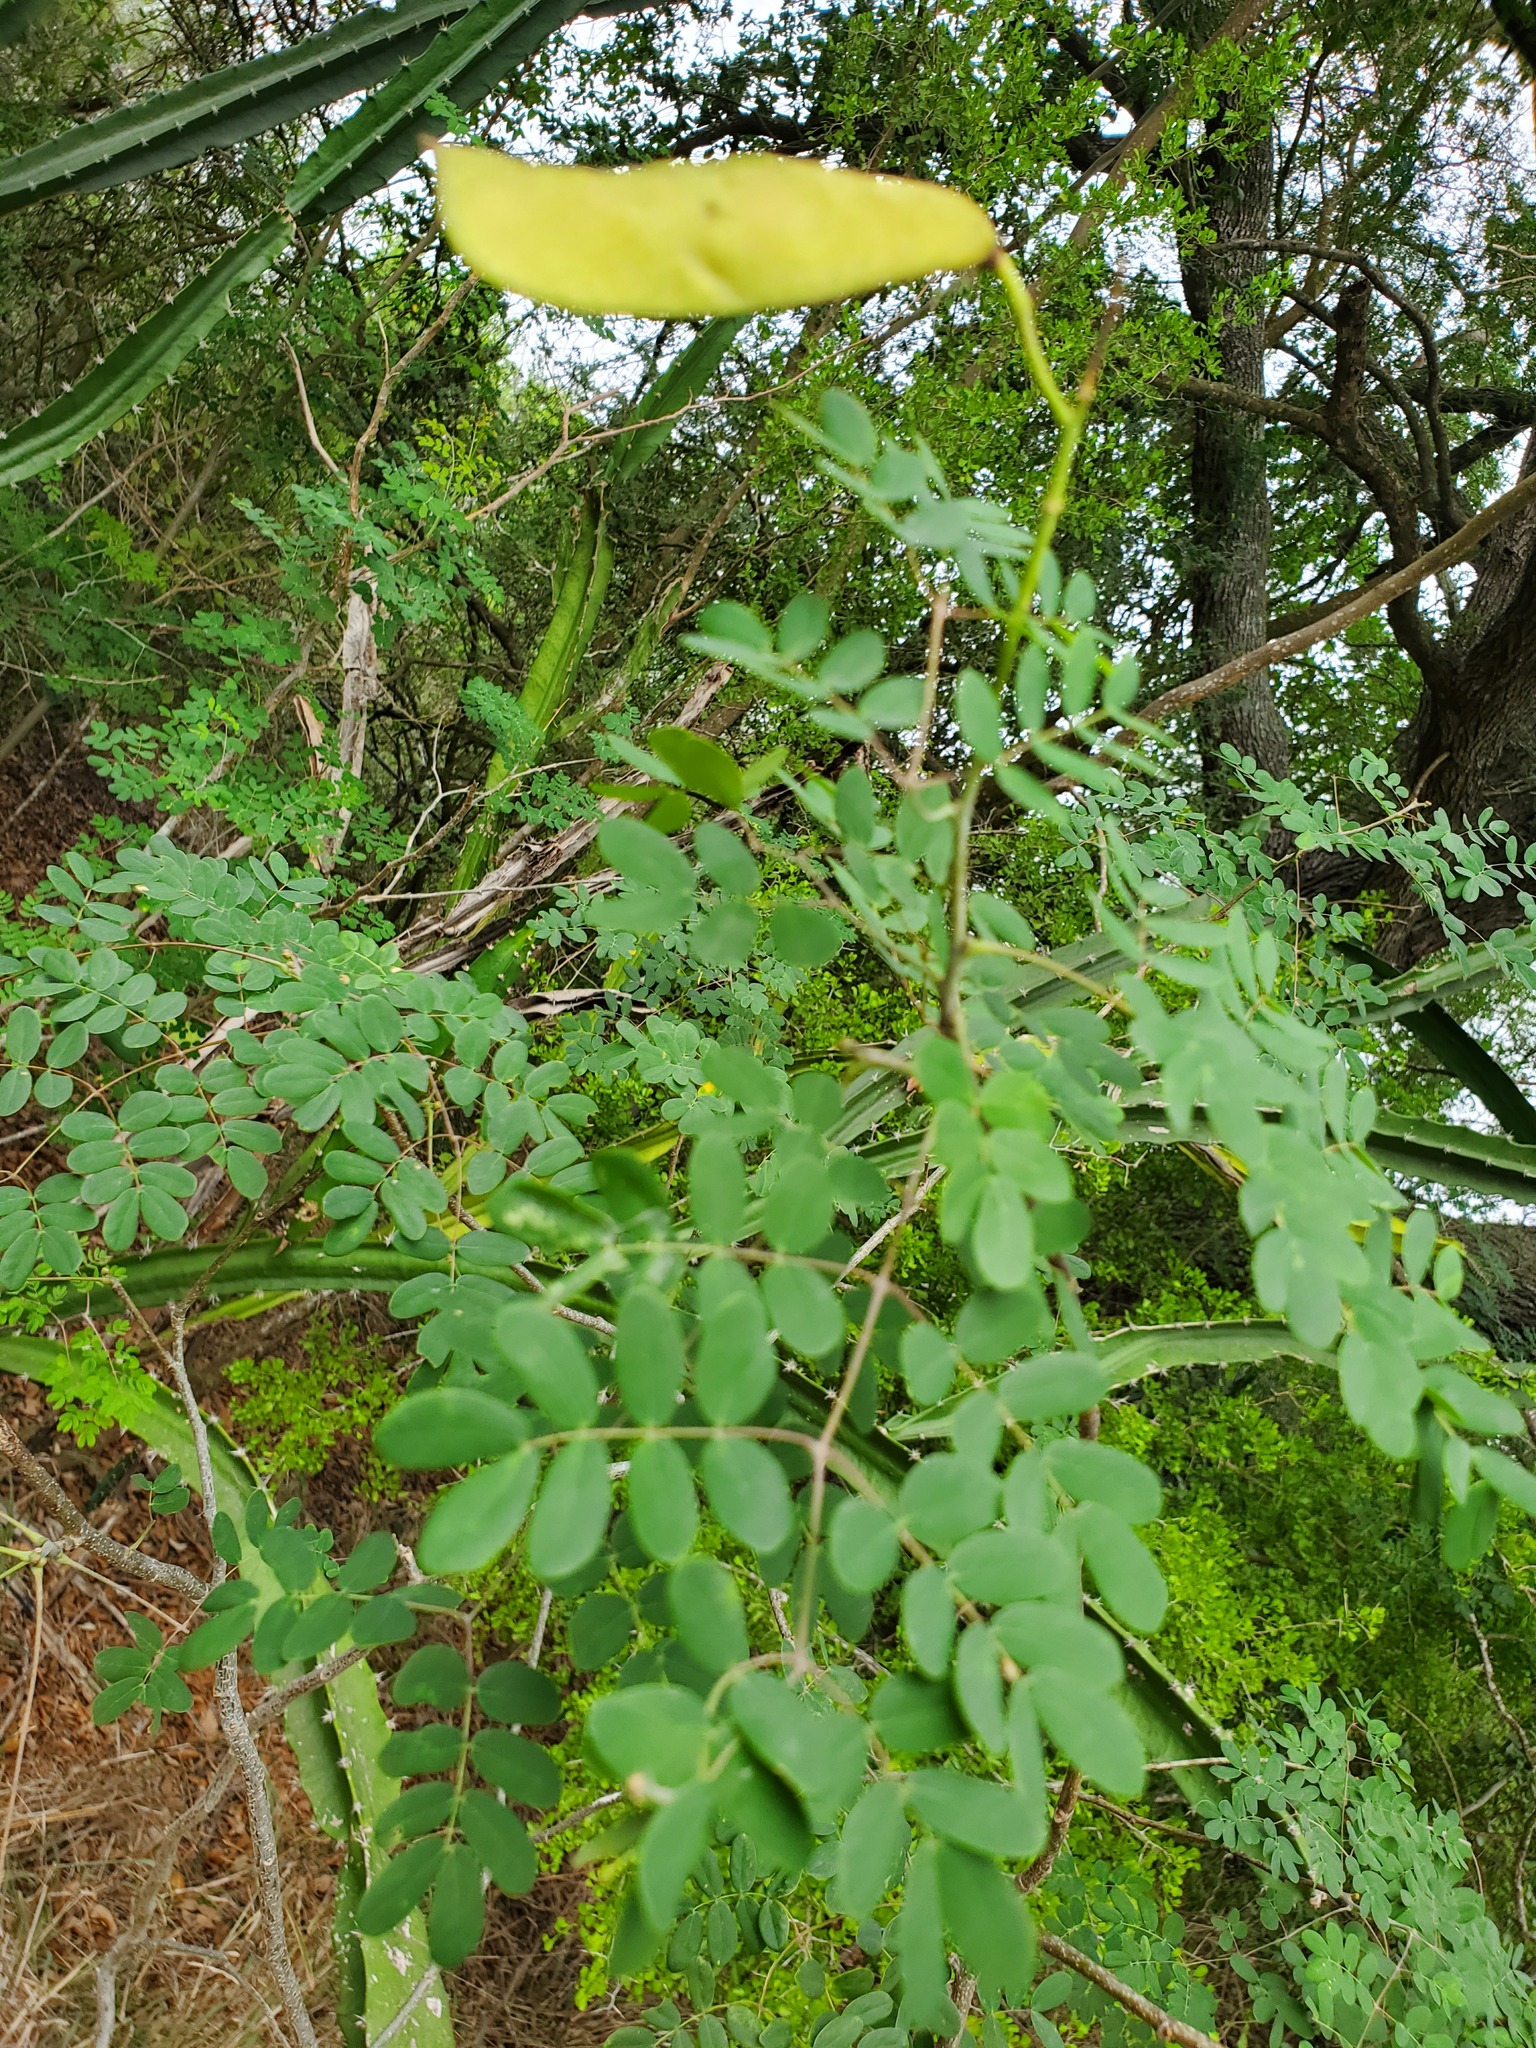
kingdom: Plantae
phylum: Tracheophyta
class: Magnoliopsida
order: Fabales
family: Fabaceae
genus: Erythrostemon
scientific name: Erythrostemon mexicanus
